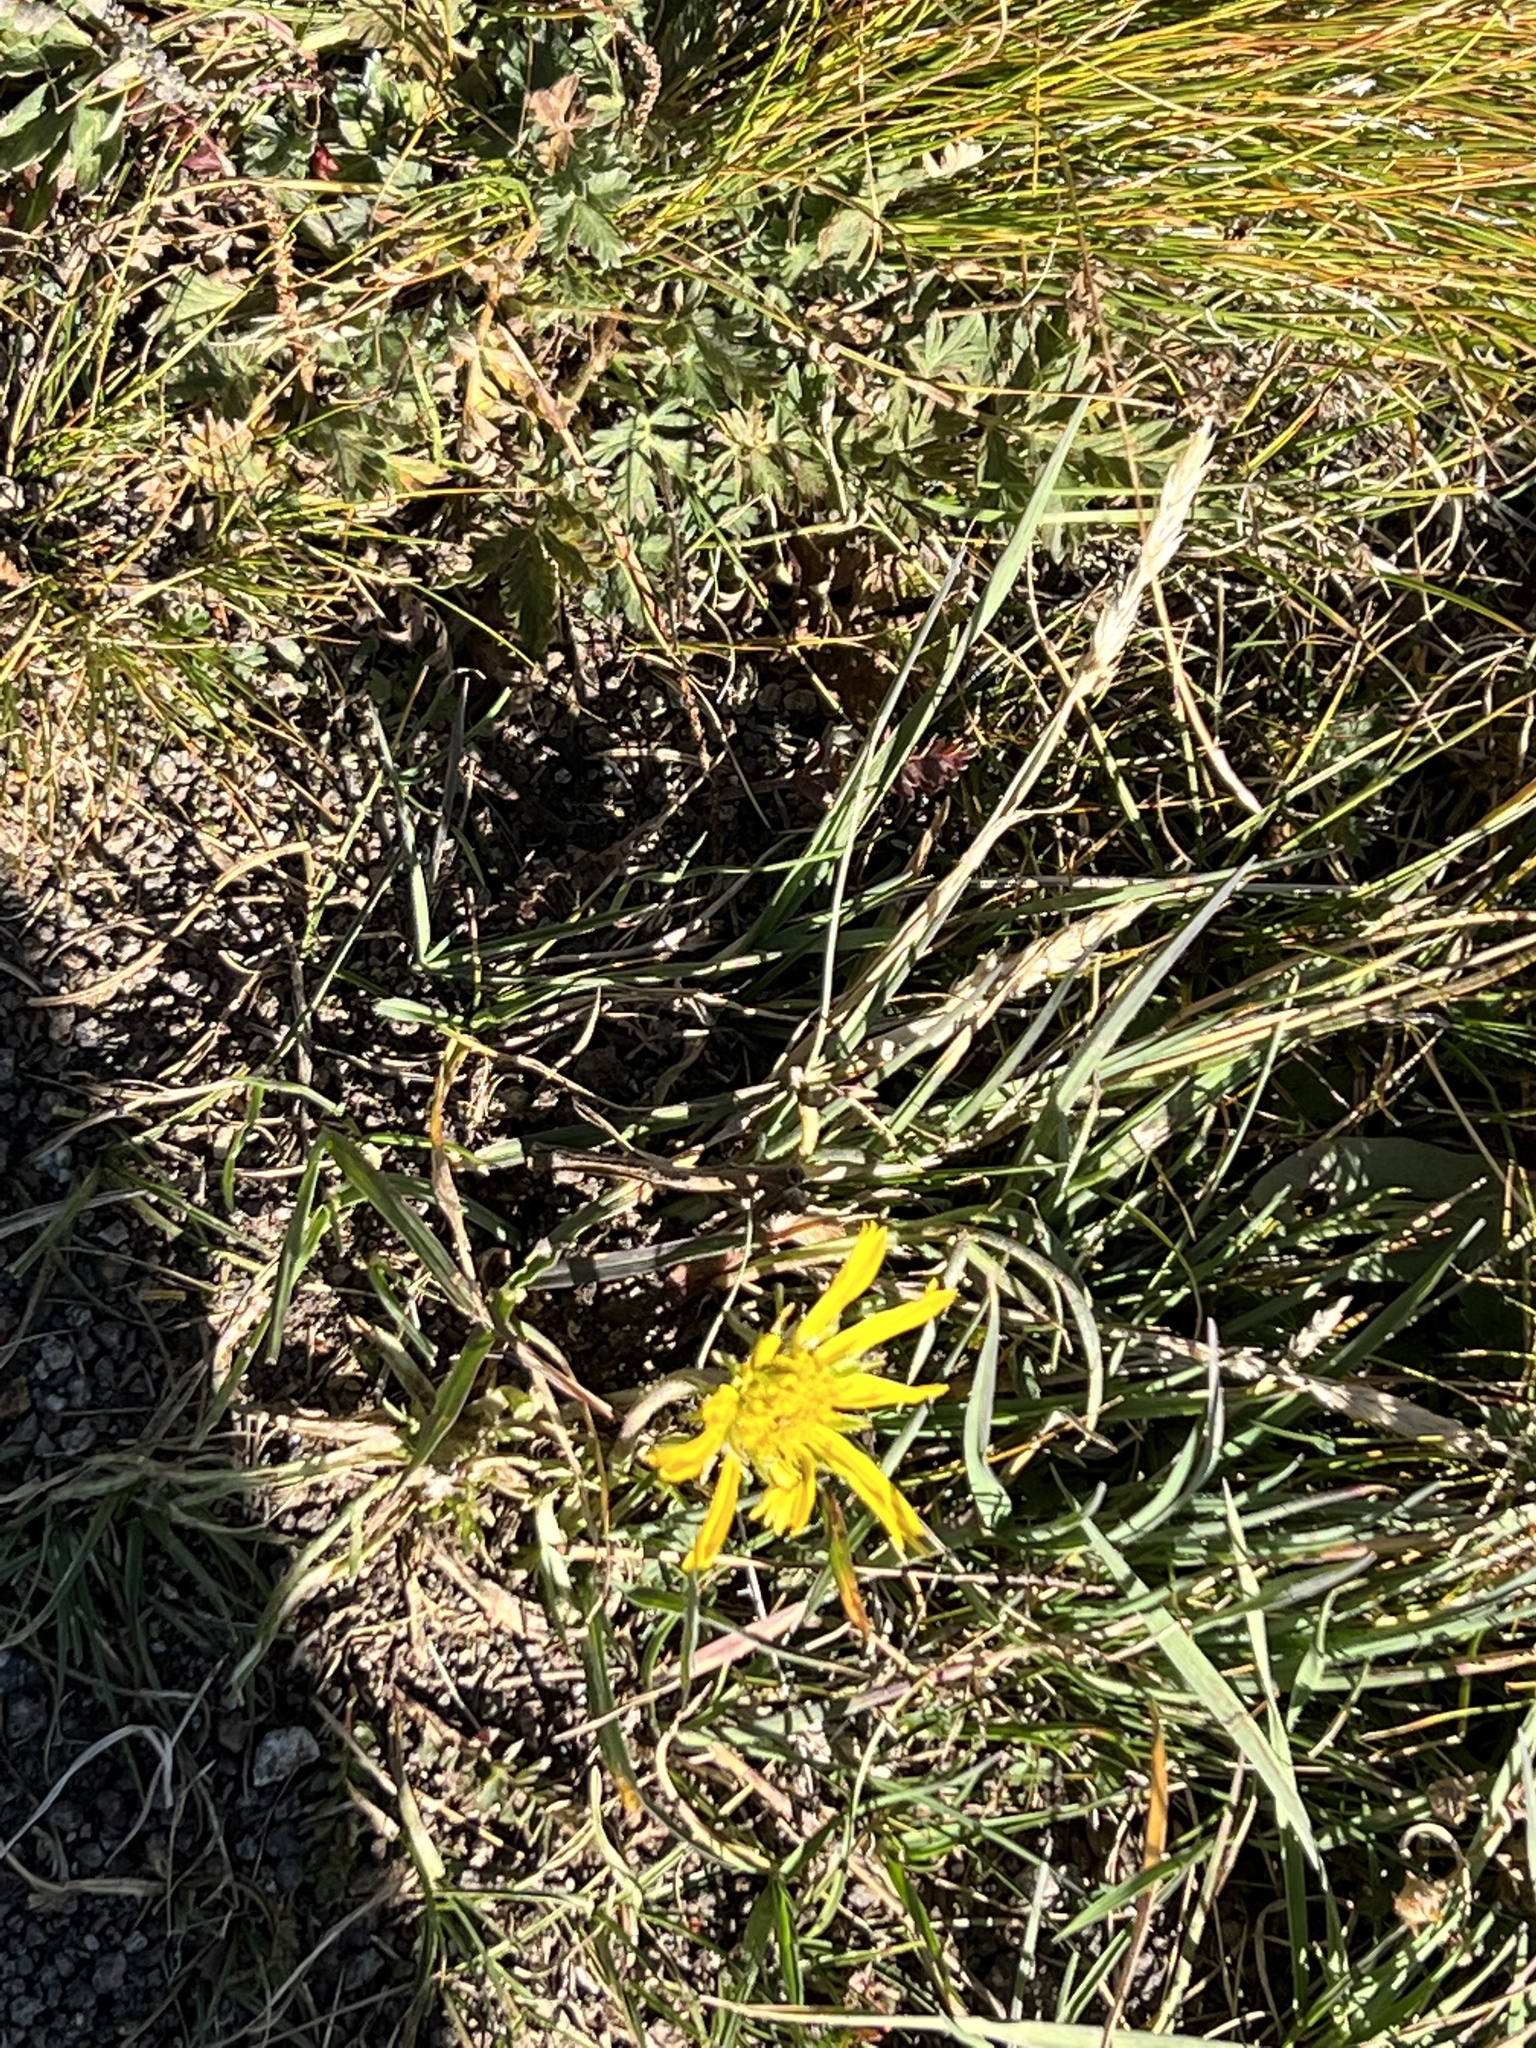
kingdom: Plantae
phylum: Tracheophyta
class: Magnoliopsida
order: Asterales
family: Asteraceae
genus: Agoseris
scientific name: Agoseris glauca
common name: Prairie agoseris
